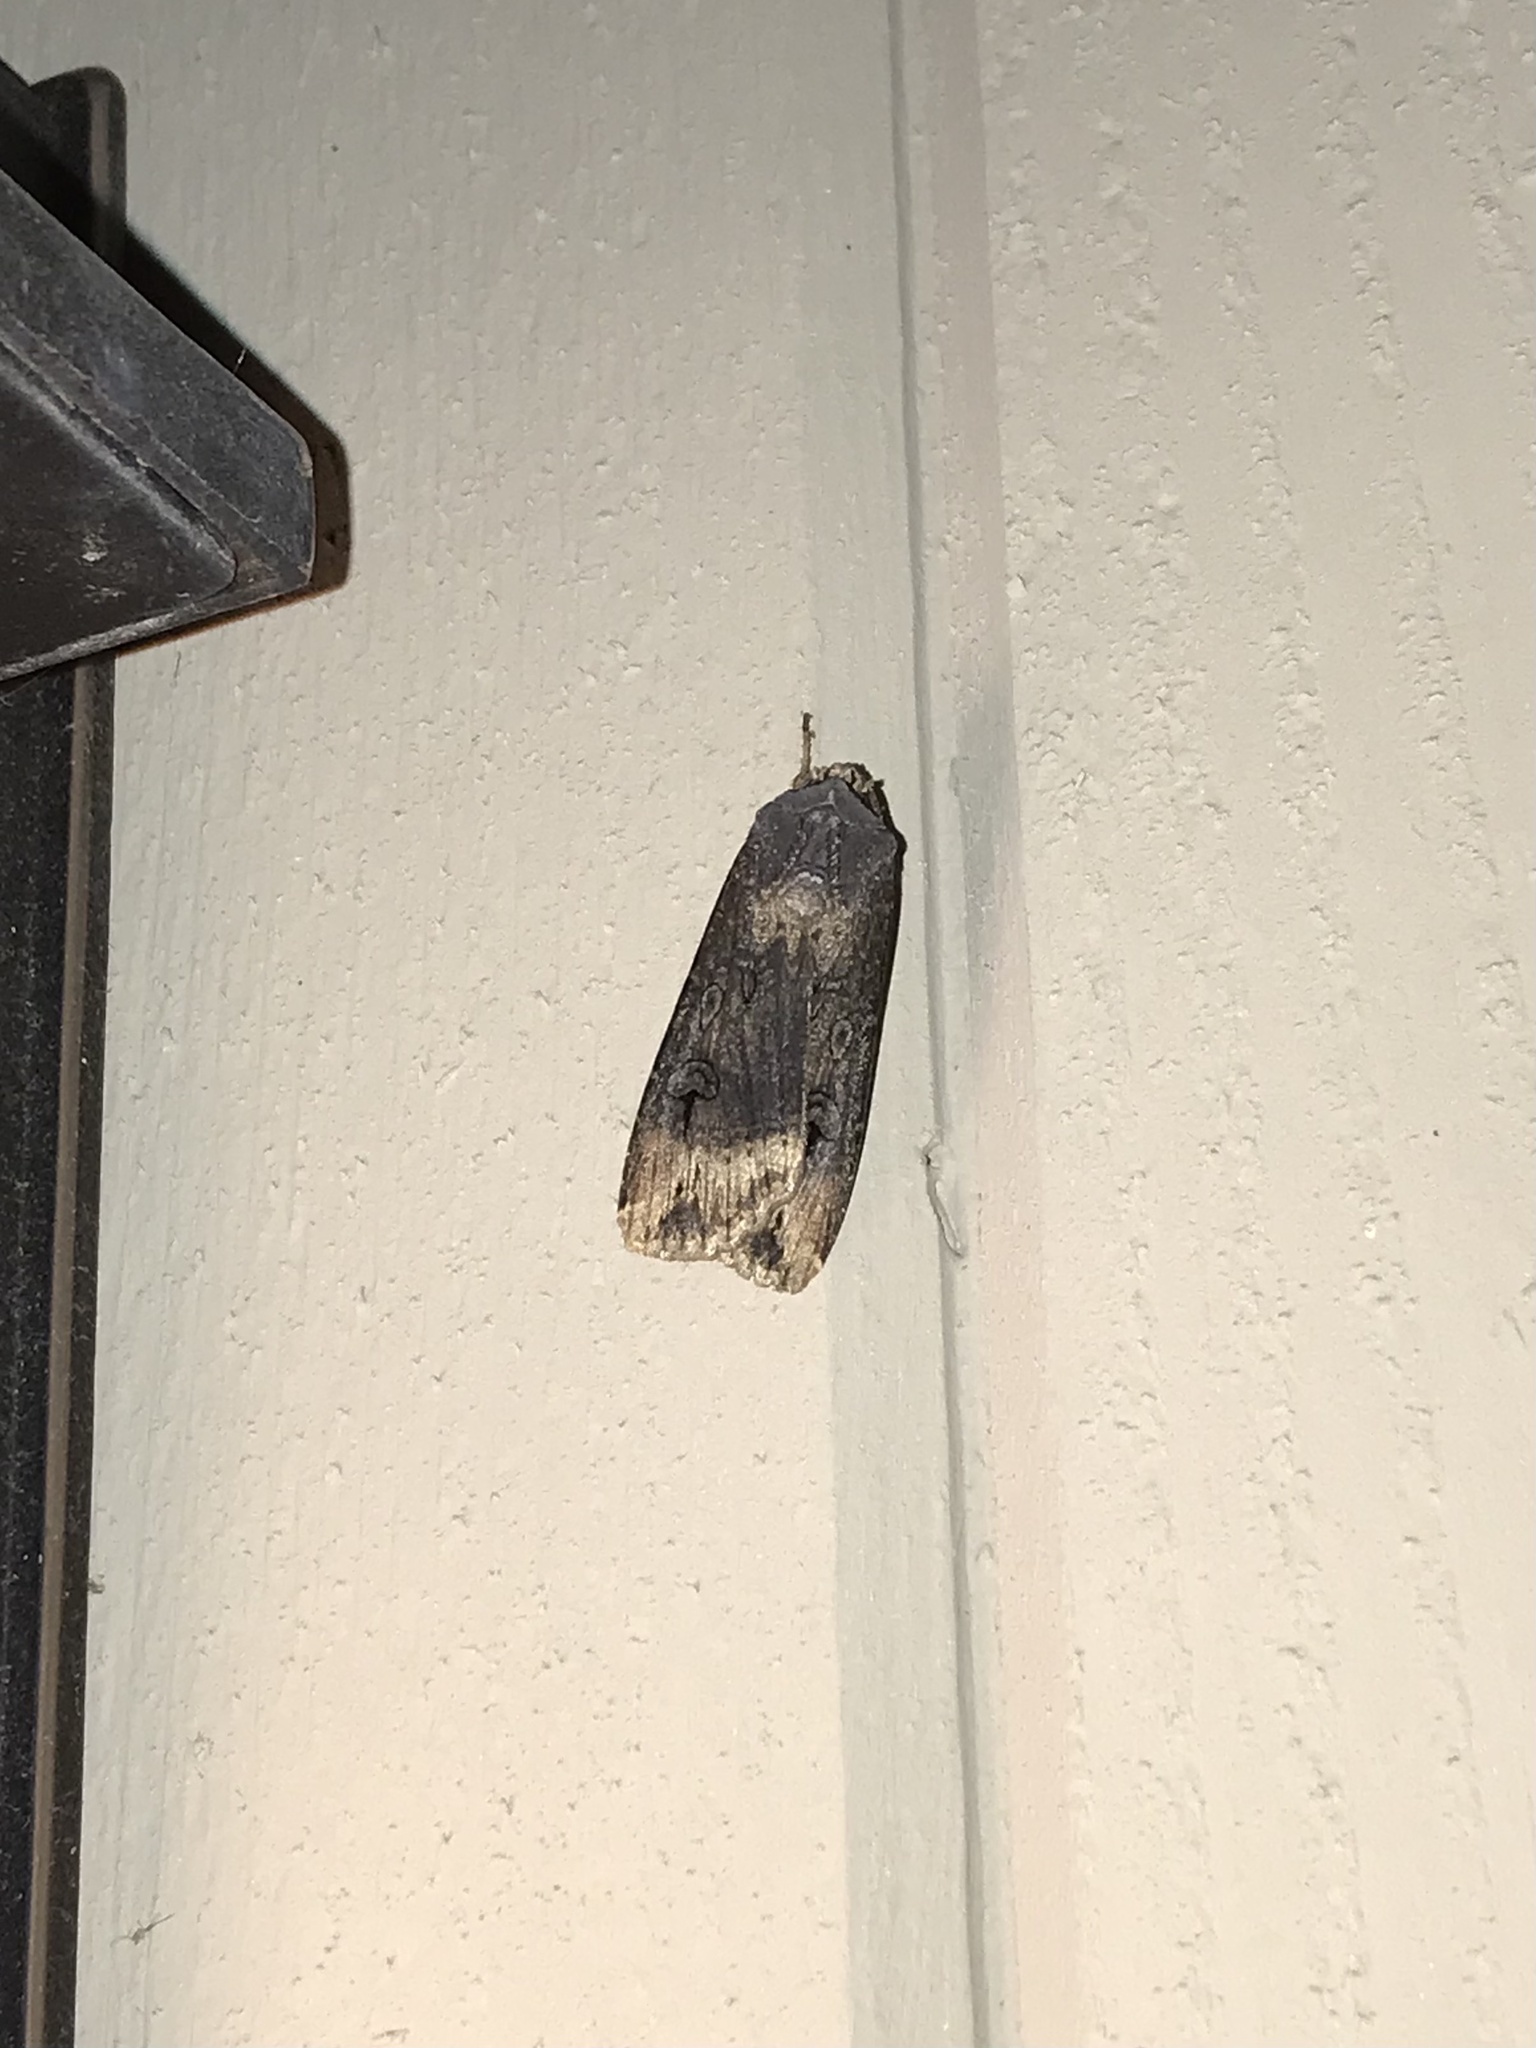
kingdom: Animalia
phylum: Arthropoda
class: Insecta
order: Lepidoptera
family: Noctuidae
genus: Agrotis
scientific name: Agrotis ipsilon
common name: Dark sword-grass
